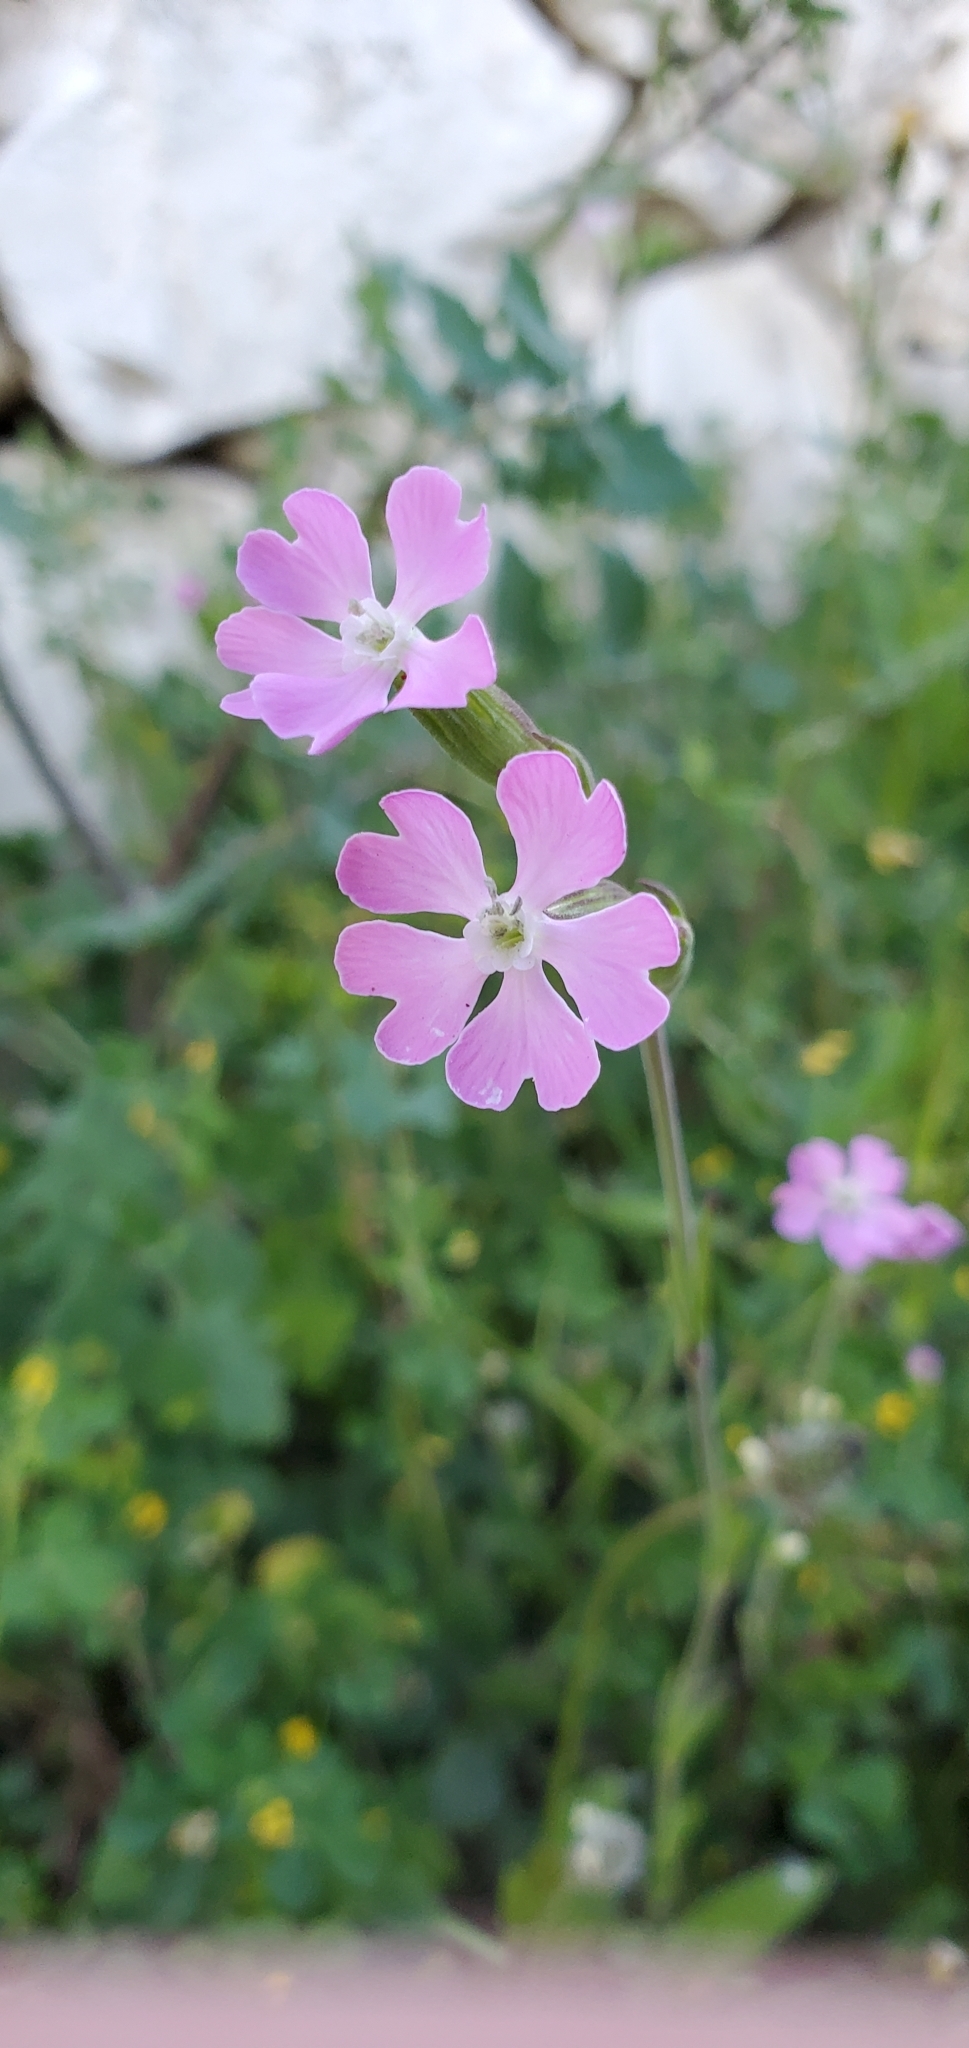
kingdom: Plantae
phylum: Tracheophyta
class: Magnoliopsida
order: Caryophyllales
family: Caryophyllaceae
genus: Silene
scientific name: Silene conica
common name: Sand catchfly
